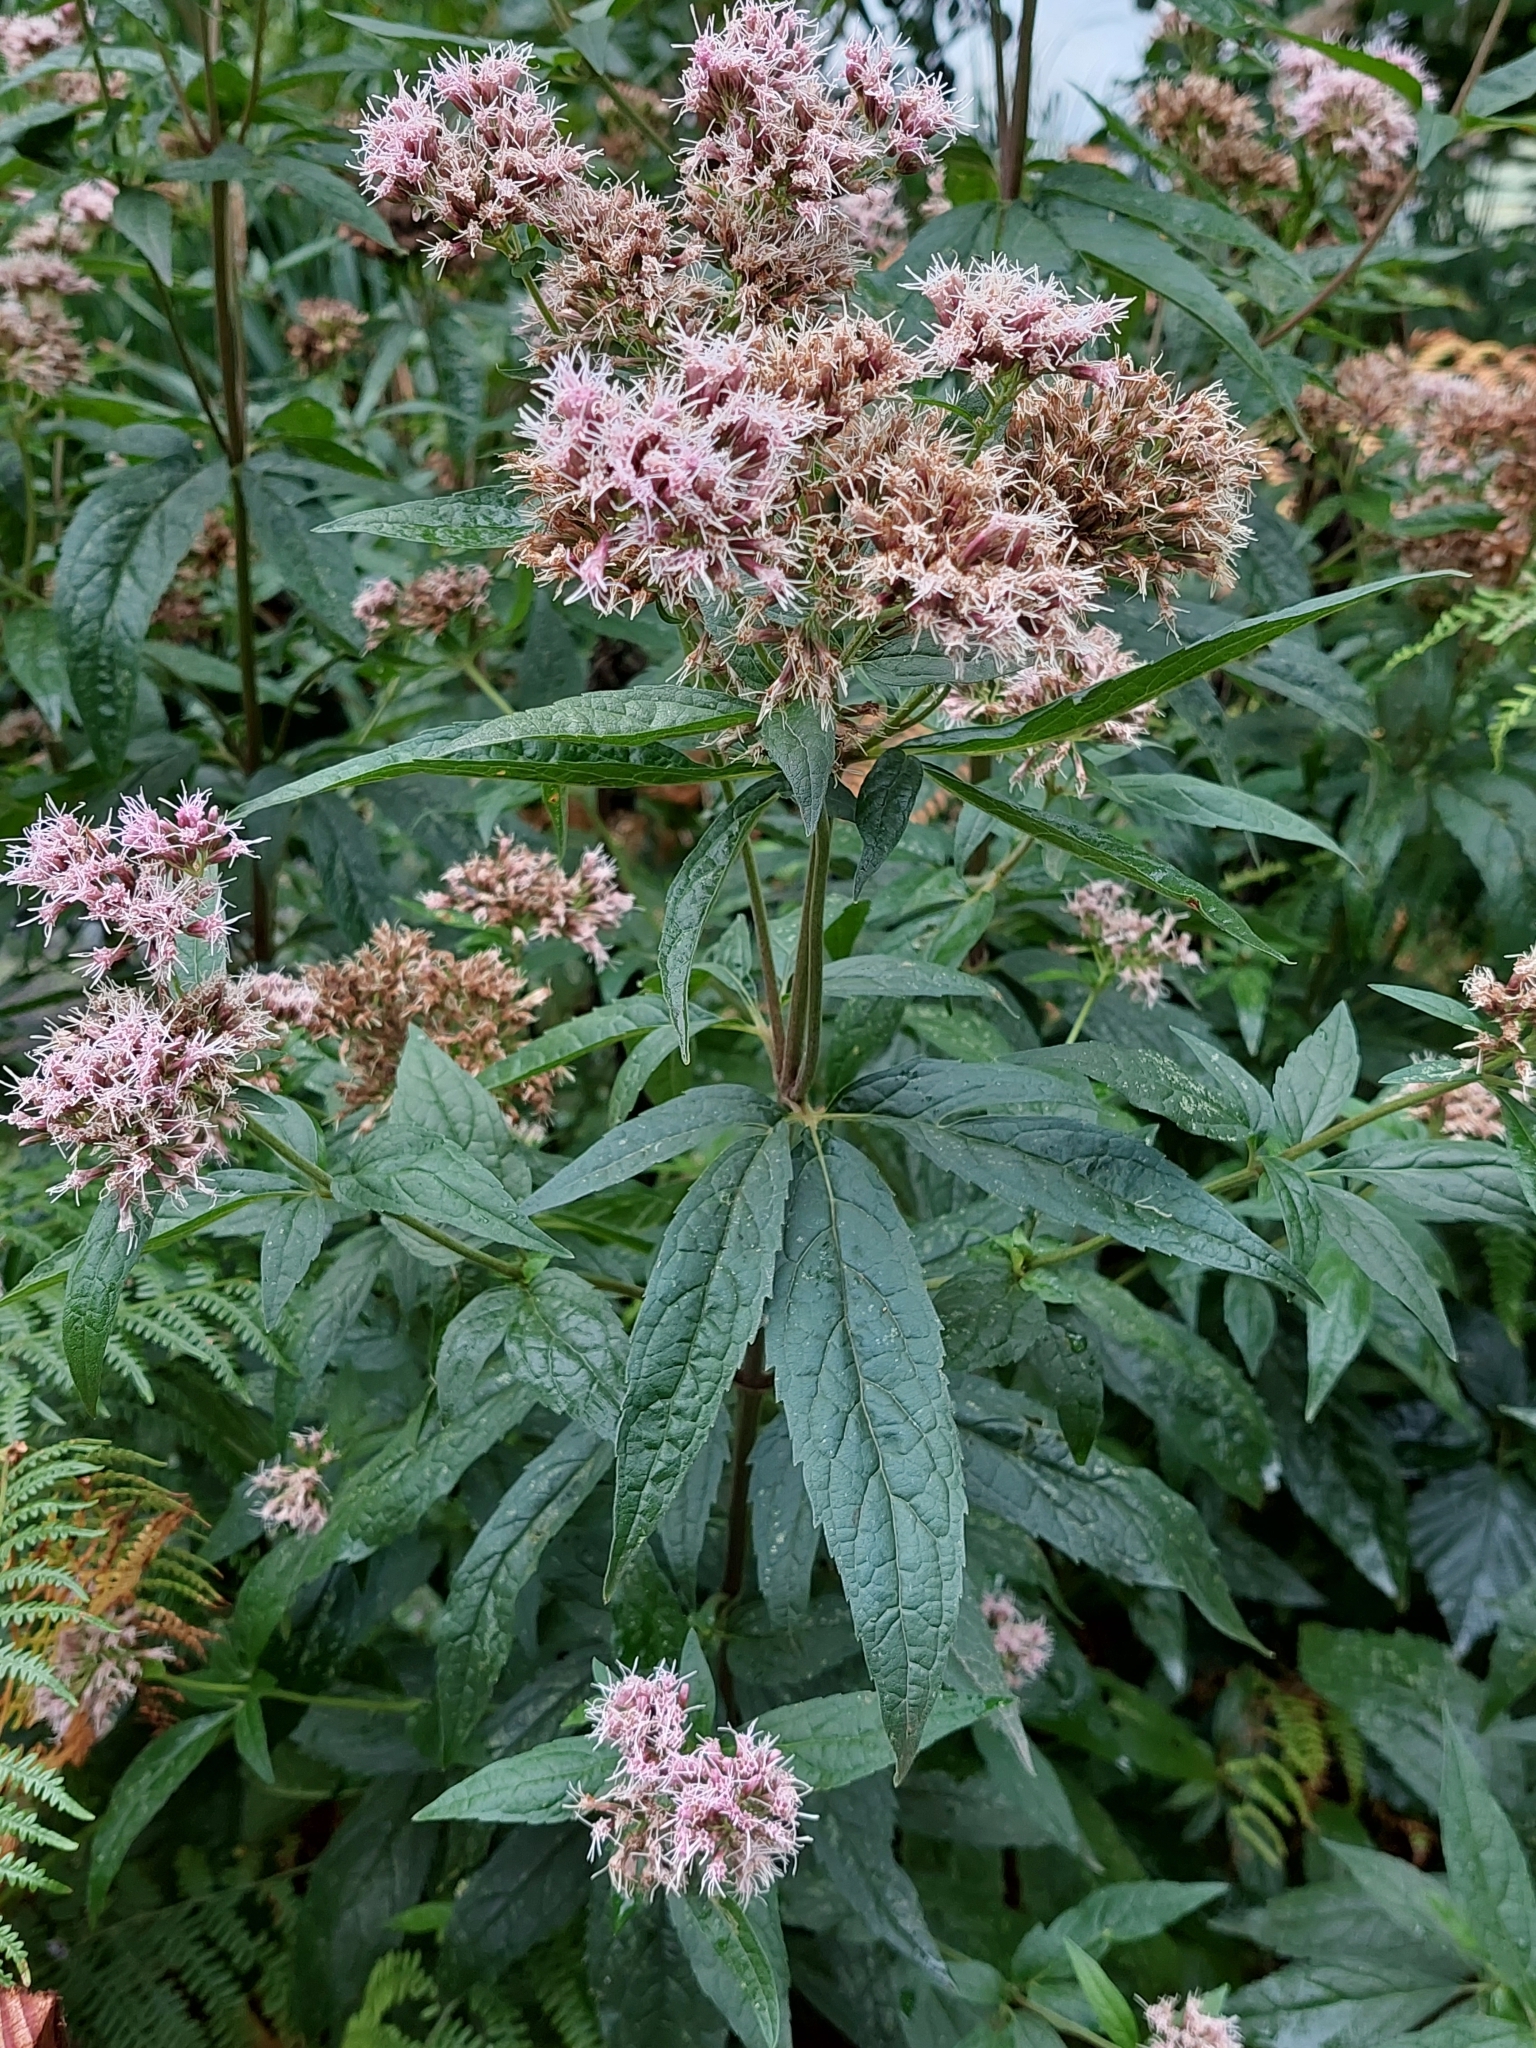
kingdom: Plantae
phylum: Tracheophyta
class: Magnoliopsida
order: Asterales
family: Asteraceae
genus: Eupatorium
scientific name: Eupatorium cannabinum
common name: Hemp-agrimony
